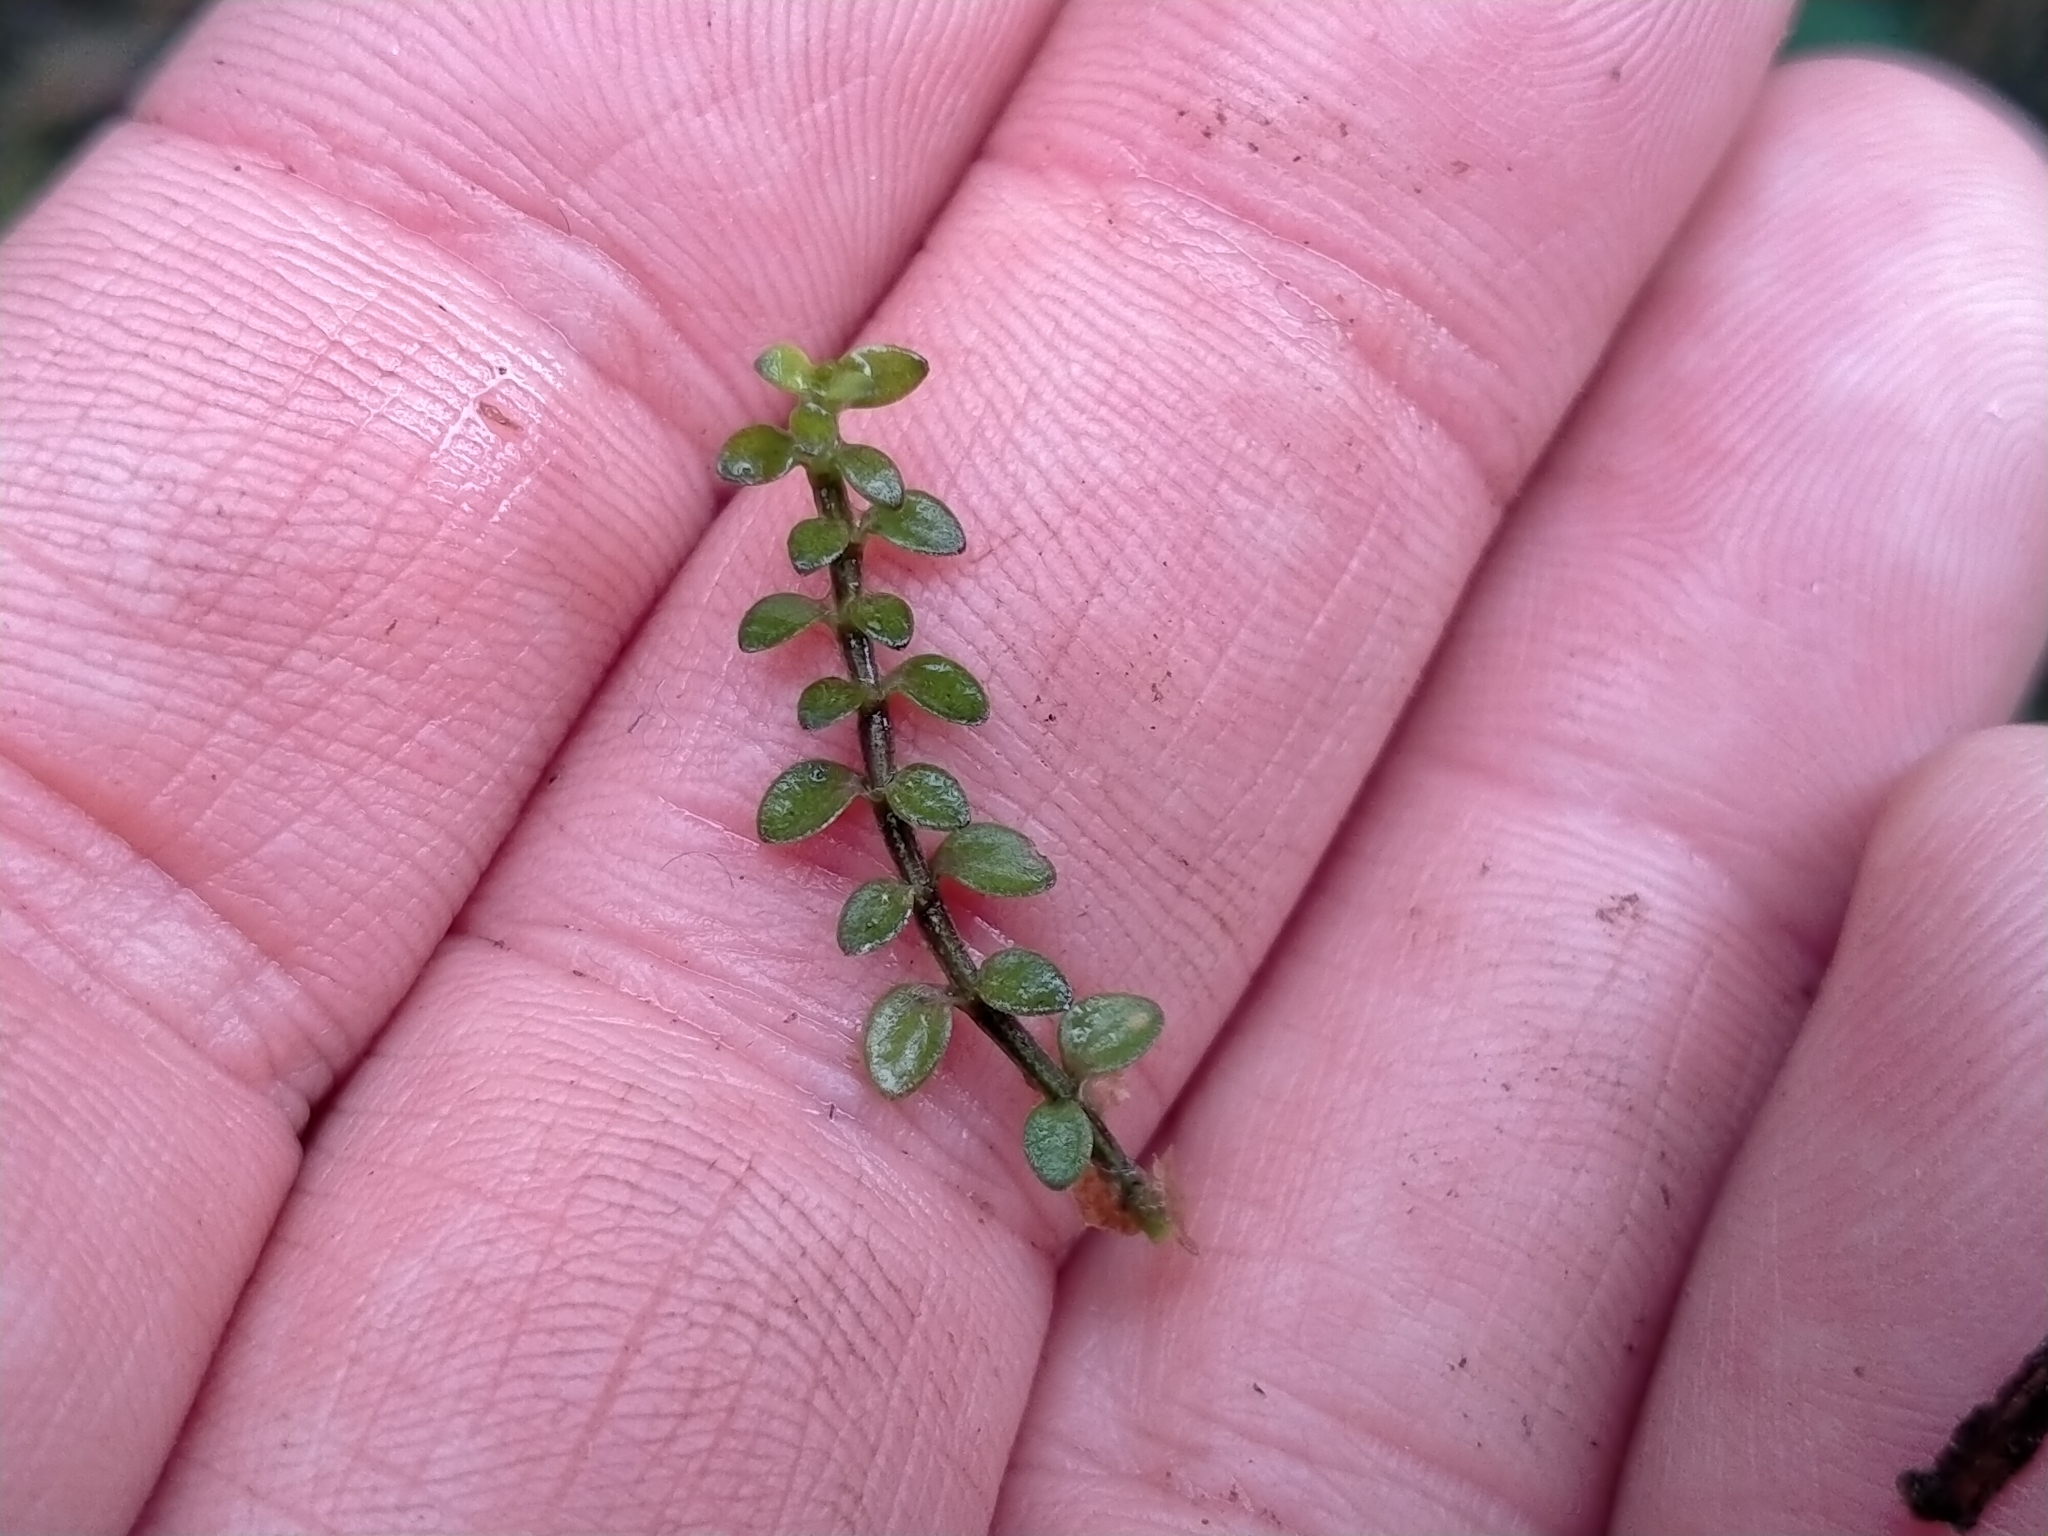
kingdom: Plantae
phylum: Tracheophyta
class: Magnoliopsida
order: Lamiales
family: Tetrachondraceae
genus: Tetrachondra
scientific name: Tetrachondra hamiltonii
